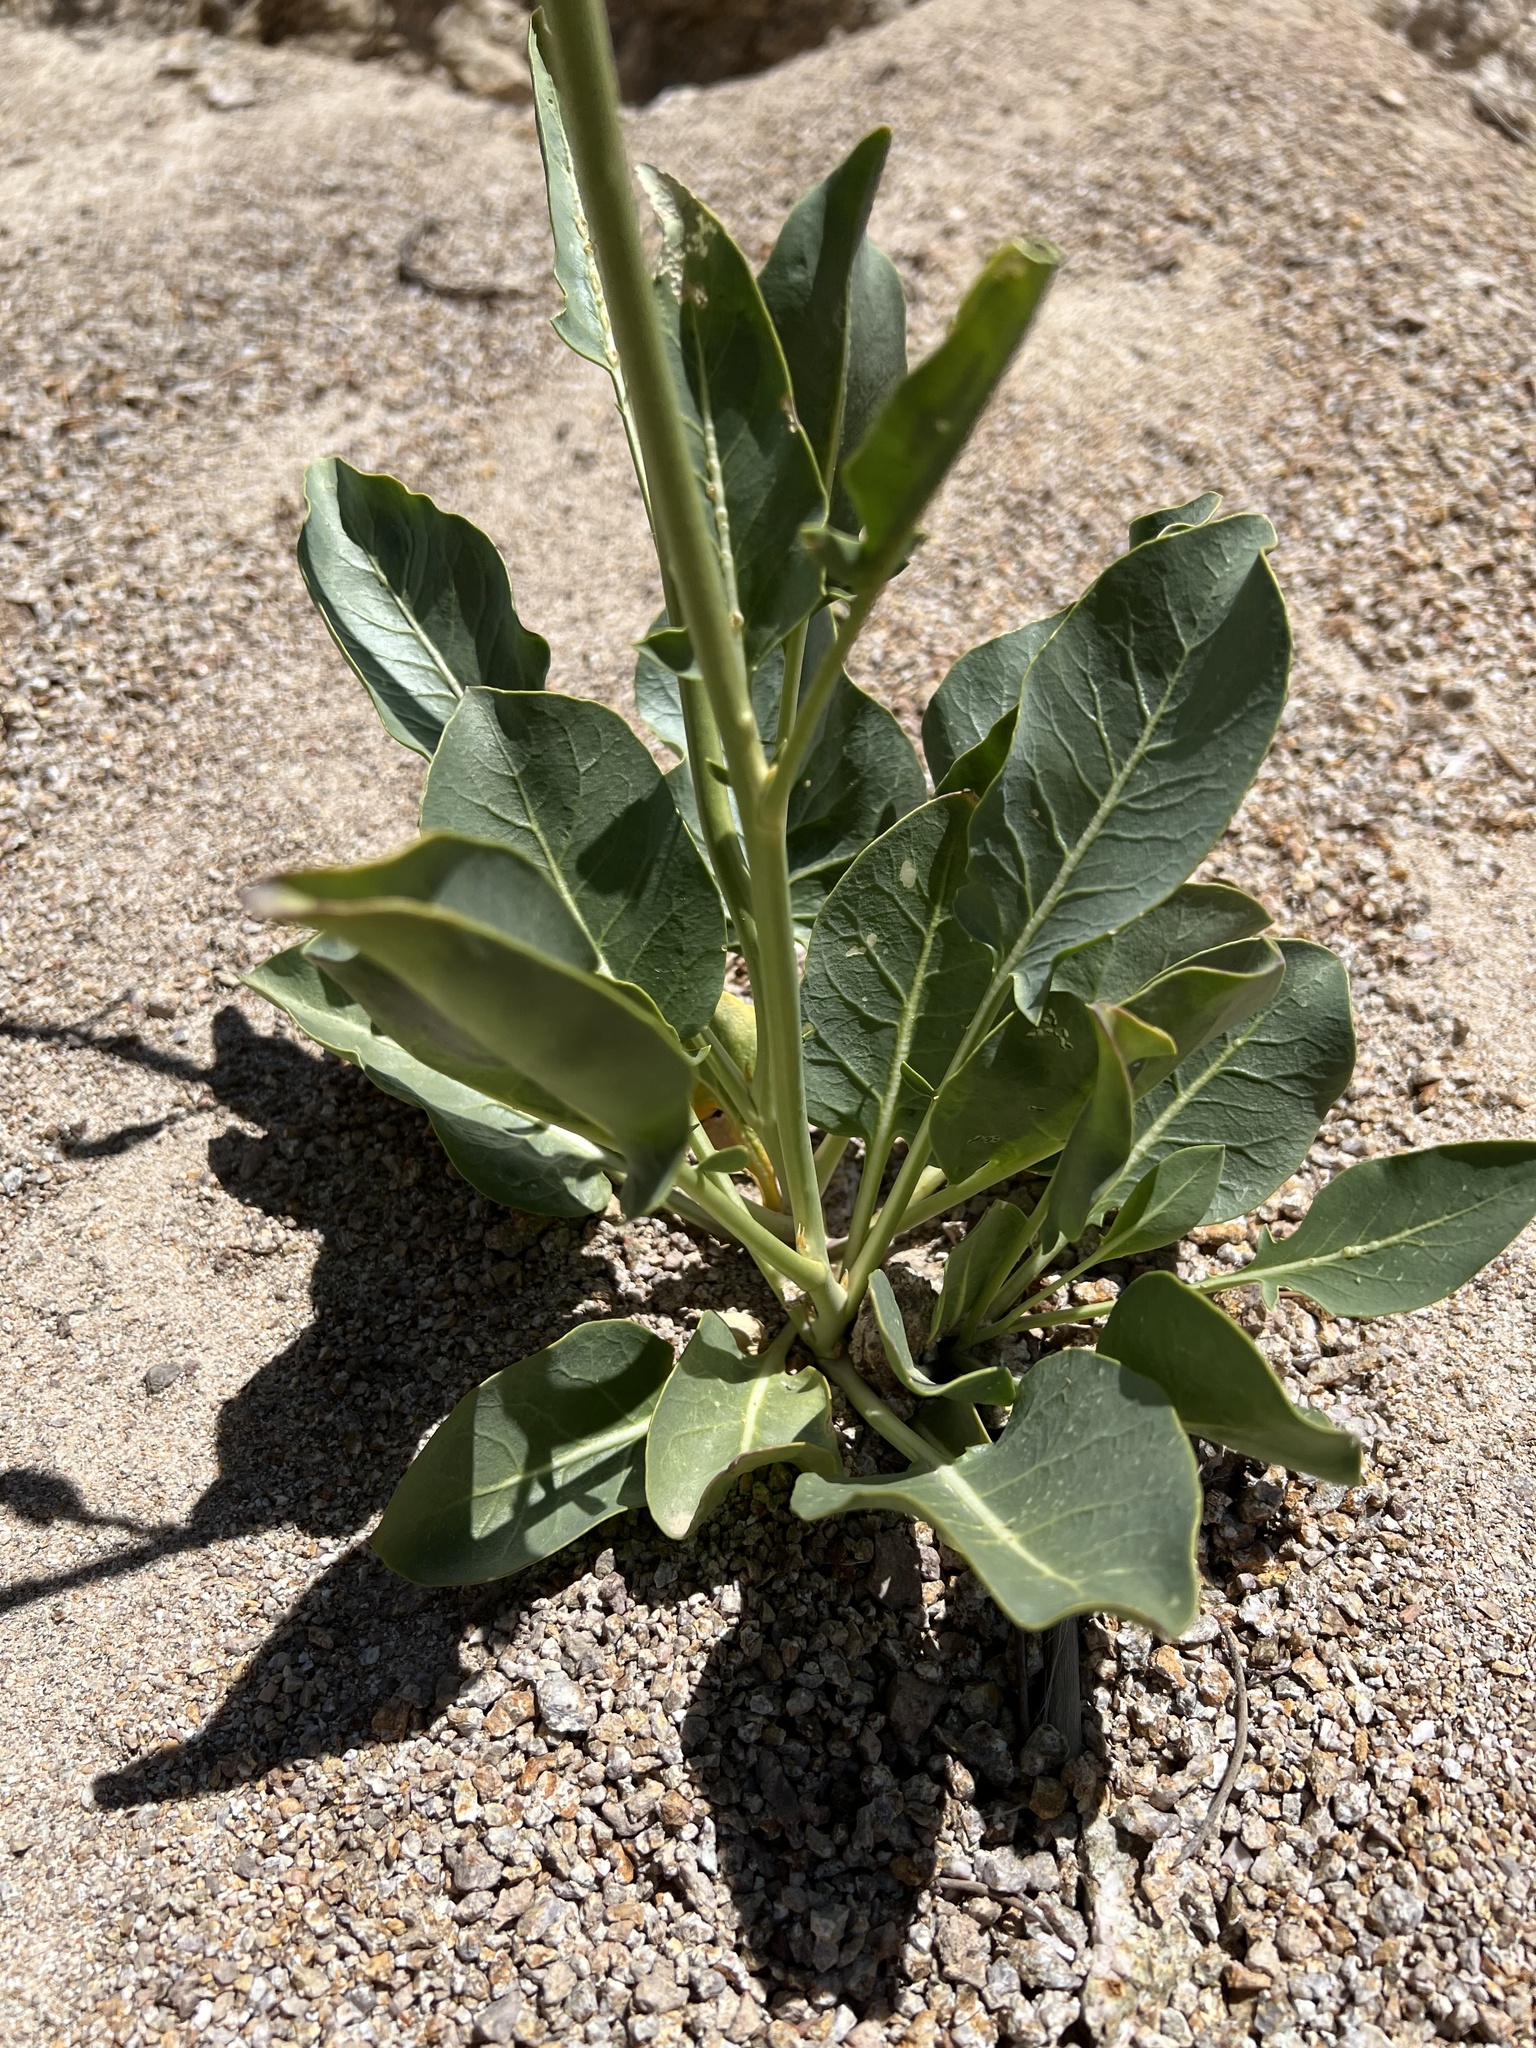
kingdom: Plantae
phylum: Tracheophyta
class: Magnoliopsida
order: Brassicales
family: Brassicaceae
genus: Stanleya
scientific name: Stanleya elata
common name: Panamint prince's plume
